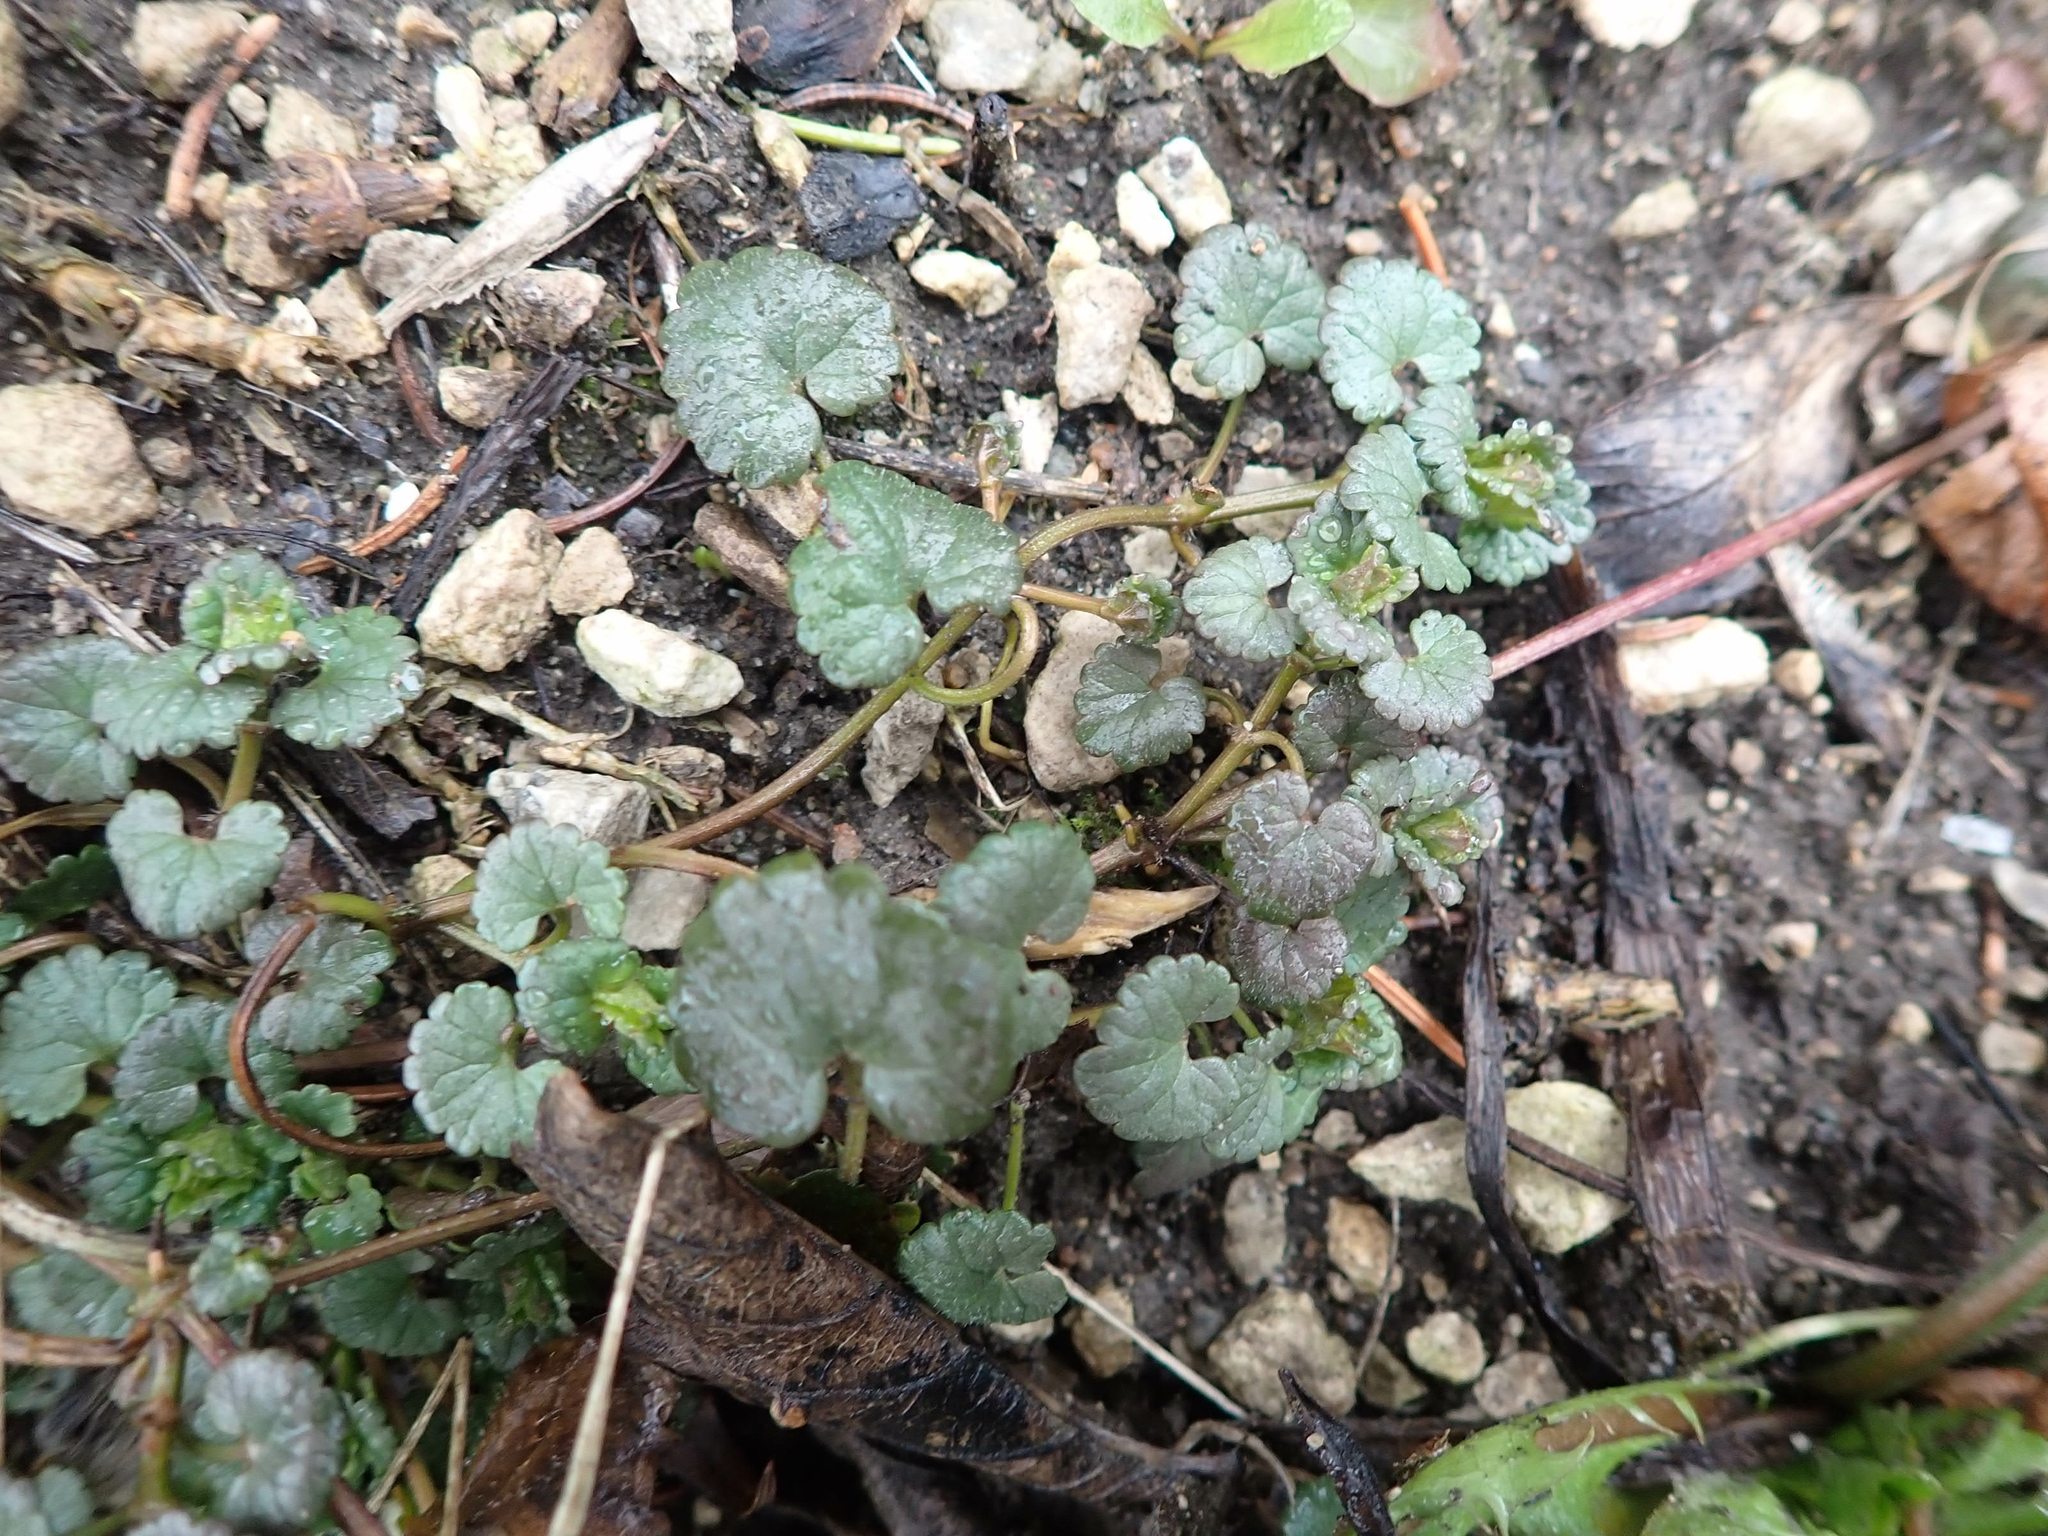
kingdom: Plantae
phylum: Tracheophyta
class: Magnoliopsida
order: Lamiales
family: Lamiaceae
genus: Glechoma
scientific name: Glechoma hederacea
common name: Ground ivy
